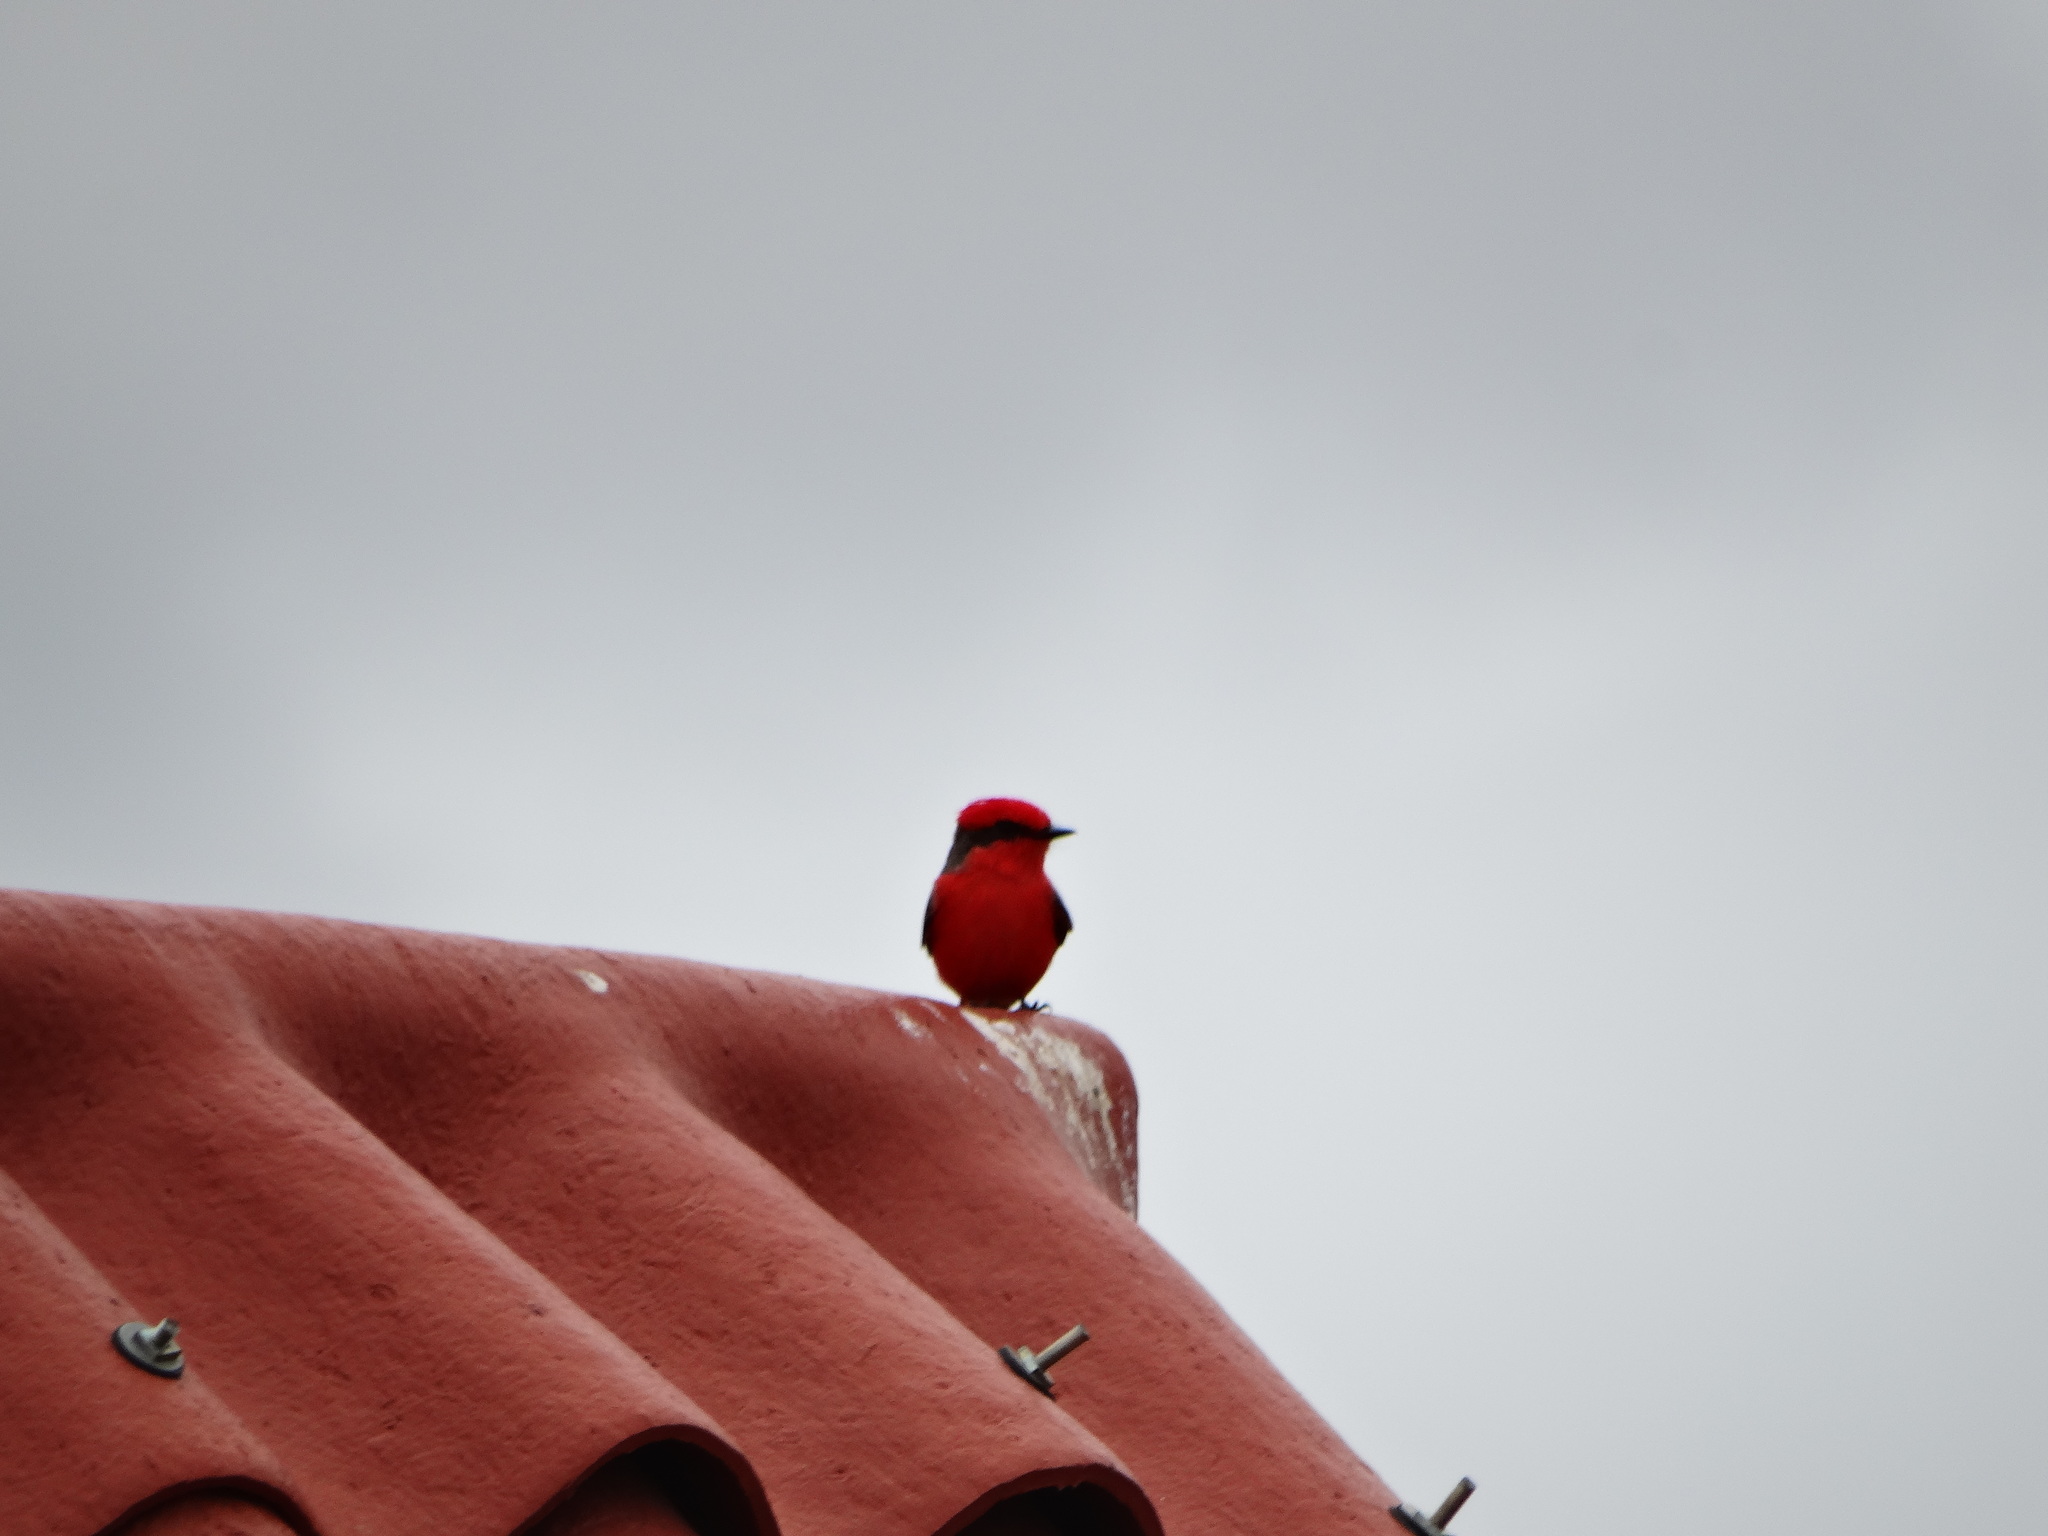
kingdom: Animalia
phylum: Chordata
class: Aves
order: Passeriformes
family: Tyrannidae
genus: Pyrocephalus
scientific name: Pyrocephalus rubinus
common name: Vermilion flycatcher
